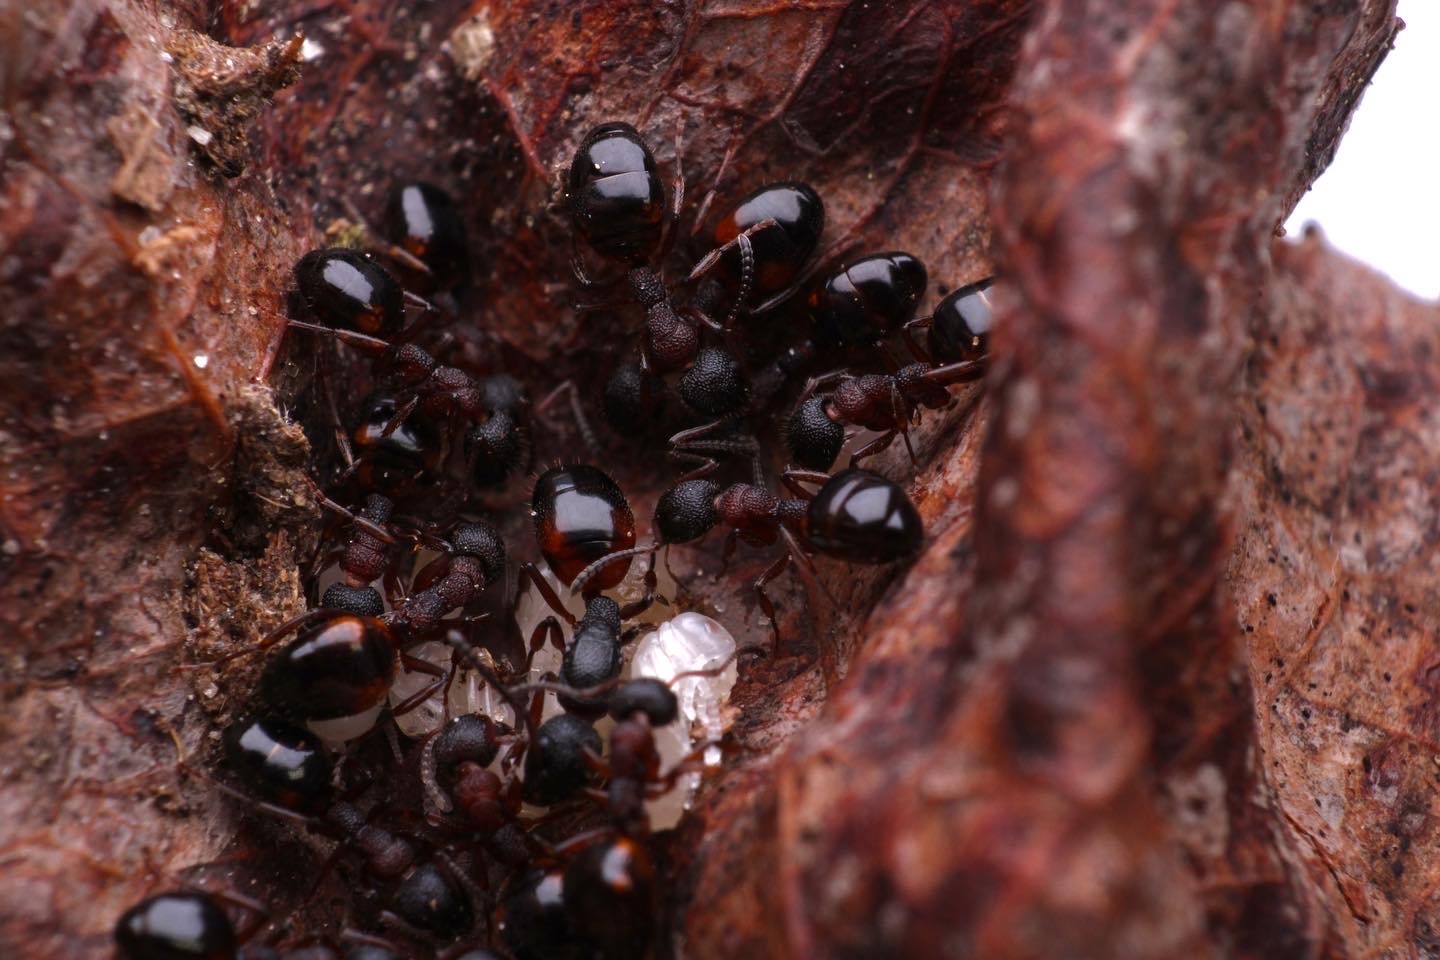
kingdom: Animalia
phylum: Arthropoda
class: Insecta
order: Hymenoptera
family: Formicidae
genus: Dolichoderus
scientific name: Dolichoderus plagiatus
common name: Mottled dolichoderus
